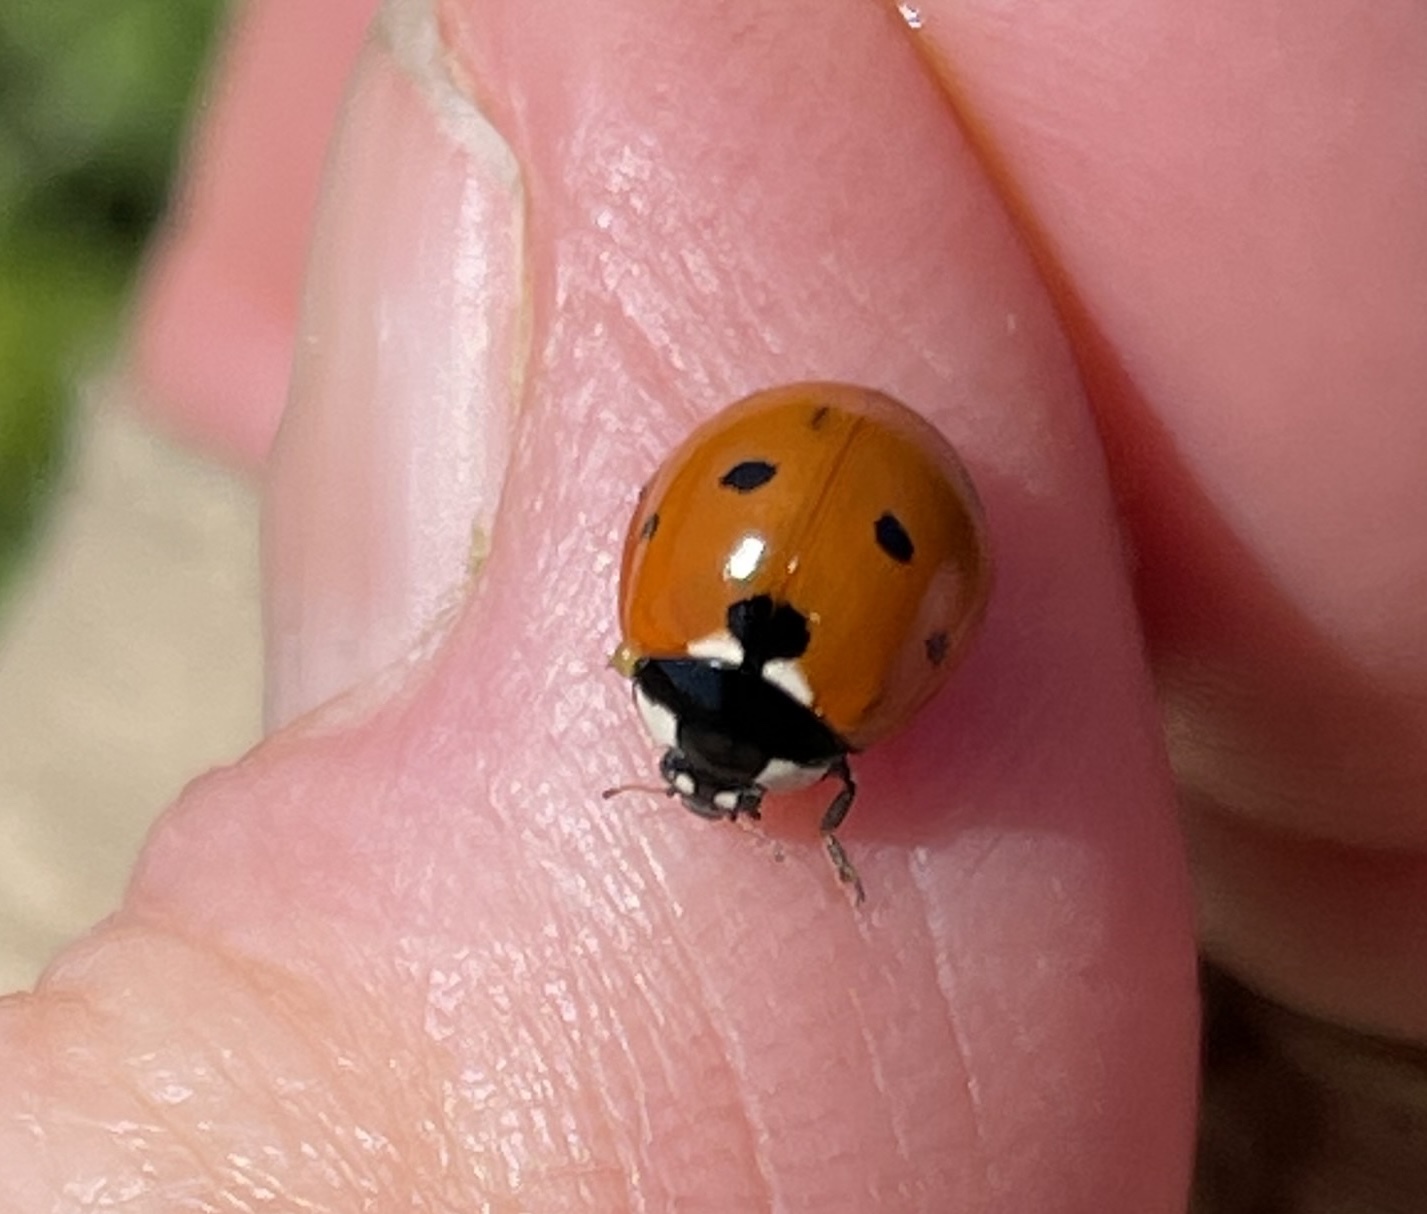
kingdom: Animalia
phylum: Arthropoda
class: Insecta
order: Coleoptera
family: Coccinellidae
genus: Coccinella
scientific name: Coccinella septempunctata
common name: Sevenspotted lady beetle
